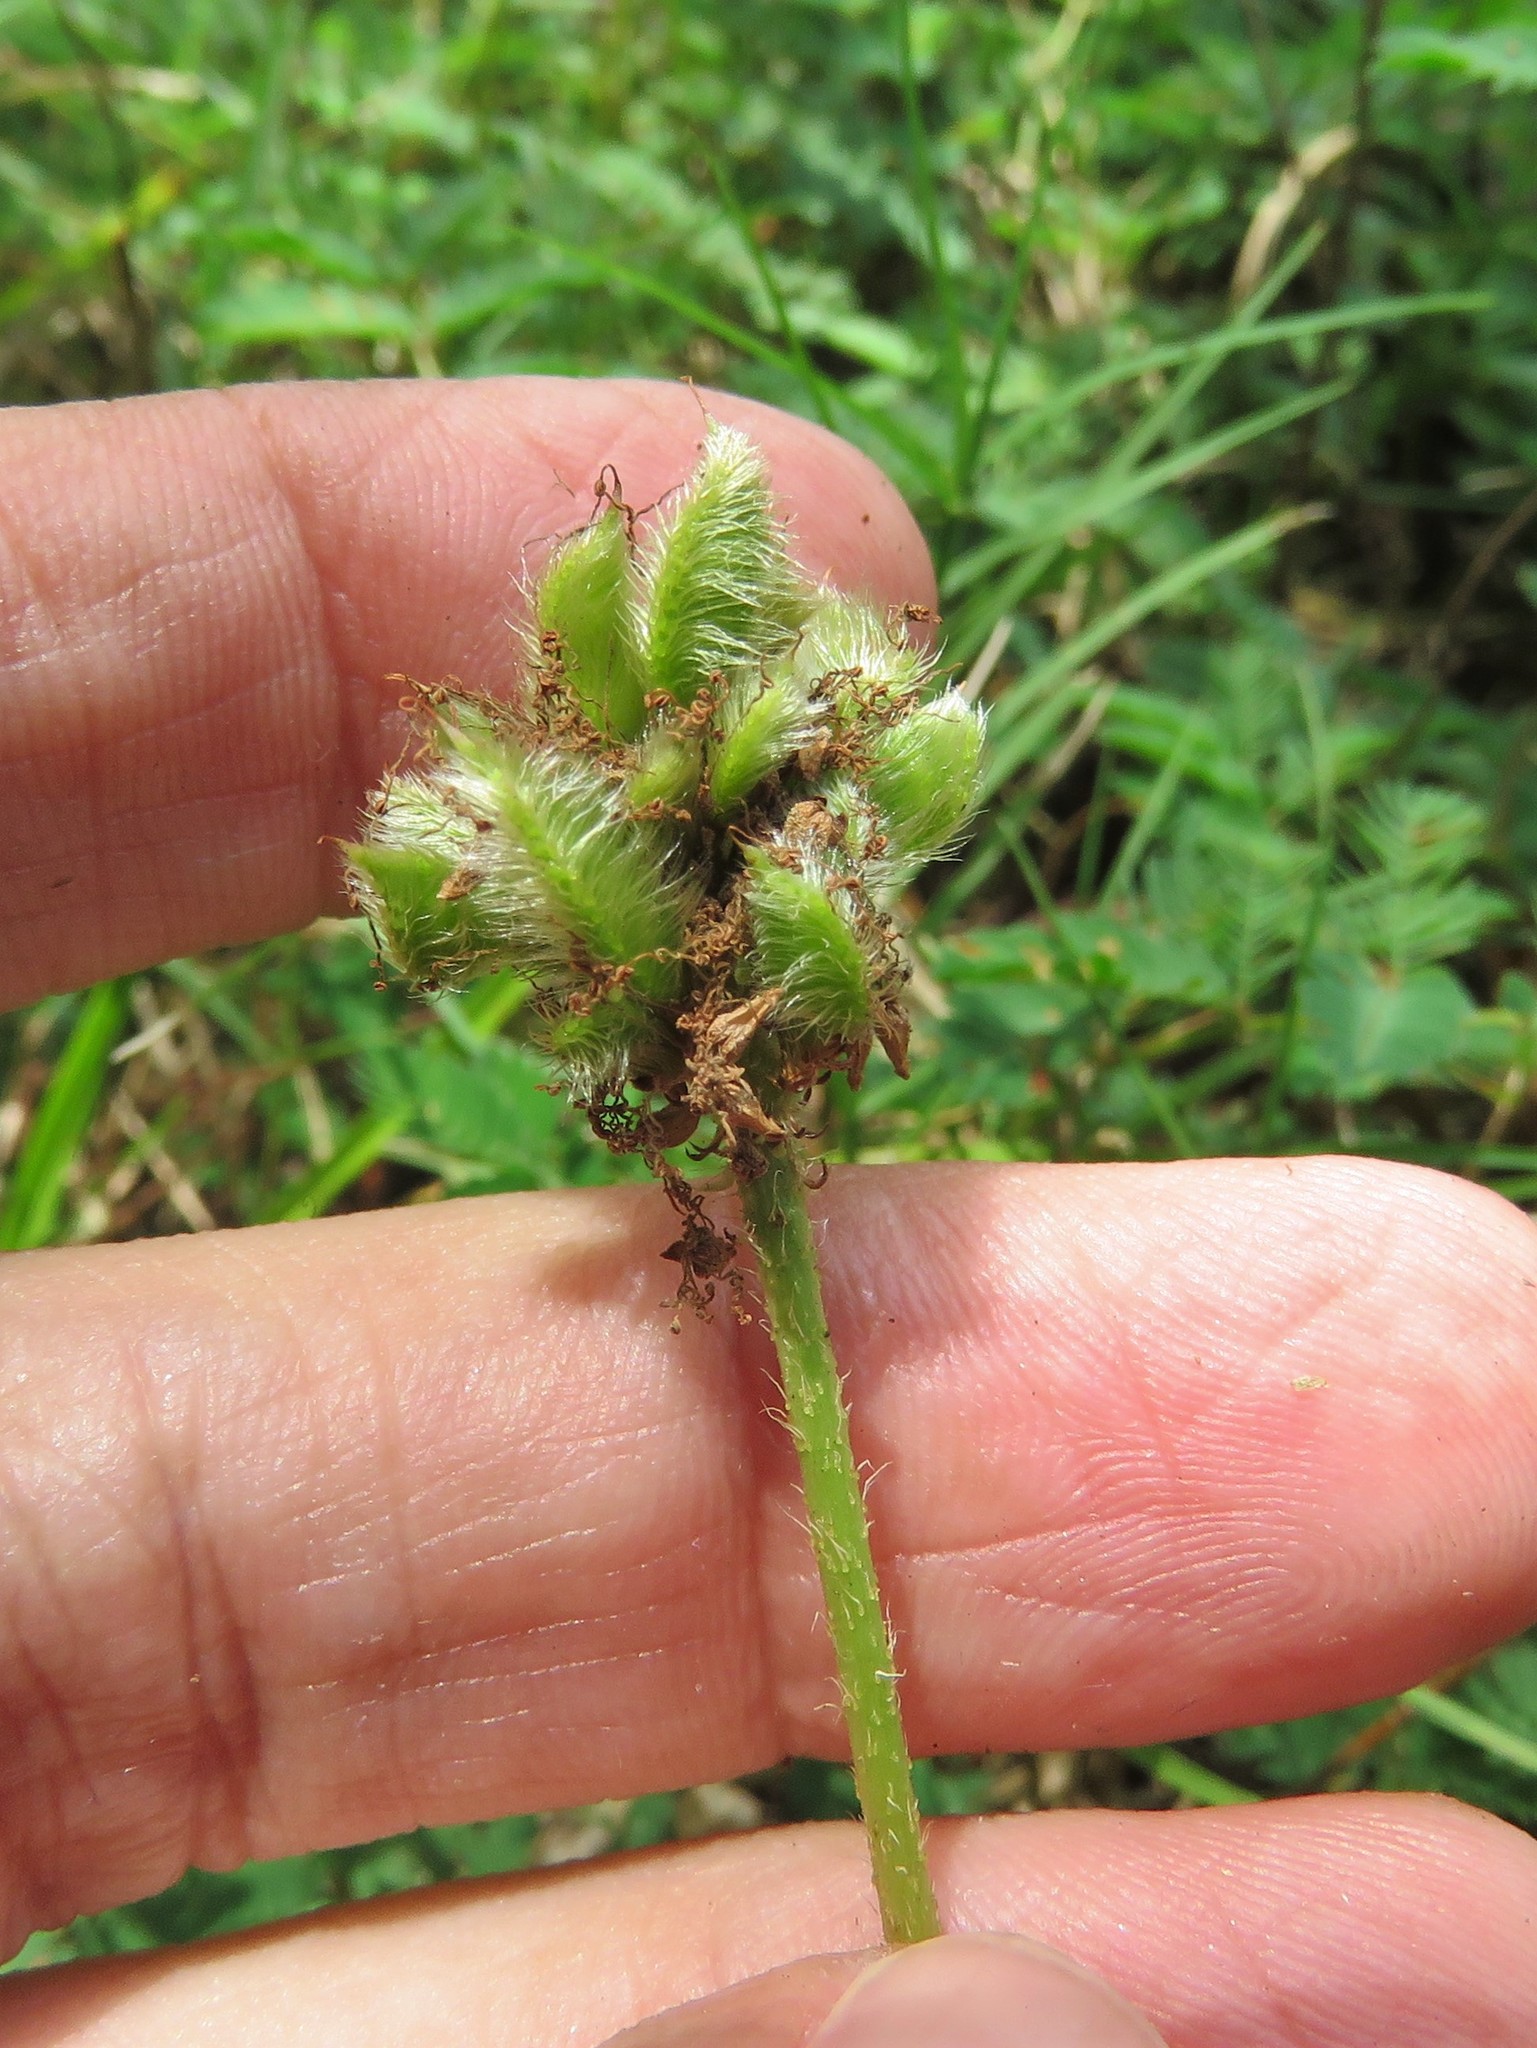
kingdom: Plantae
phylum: Tracheophyta
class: Magnoliopsida
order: Fabales
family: Fabaceae
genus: Mimosa
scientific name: Mimosa strigillosa
